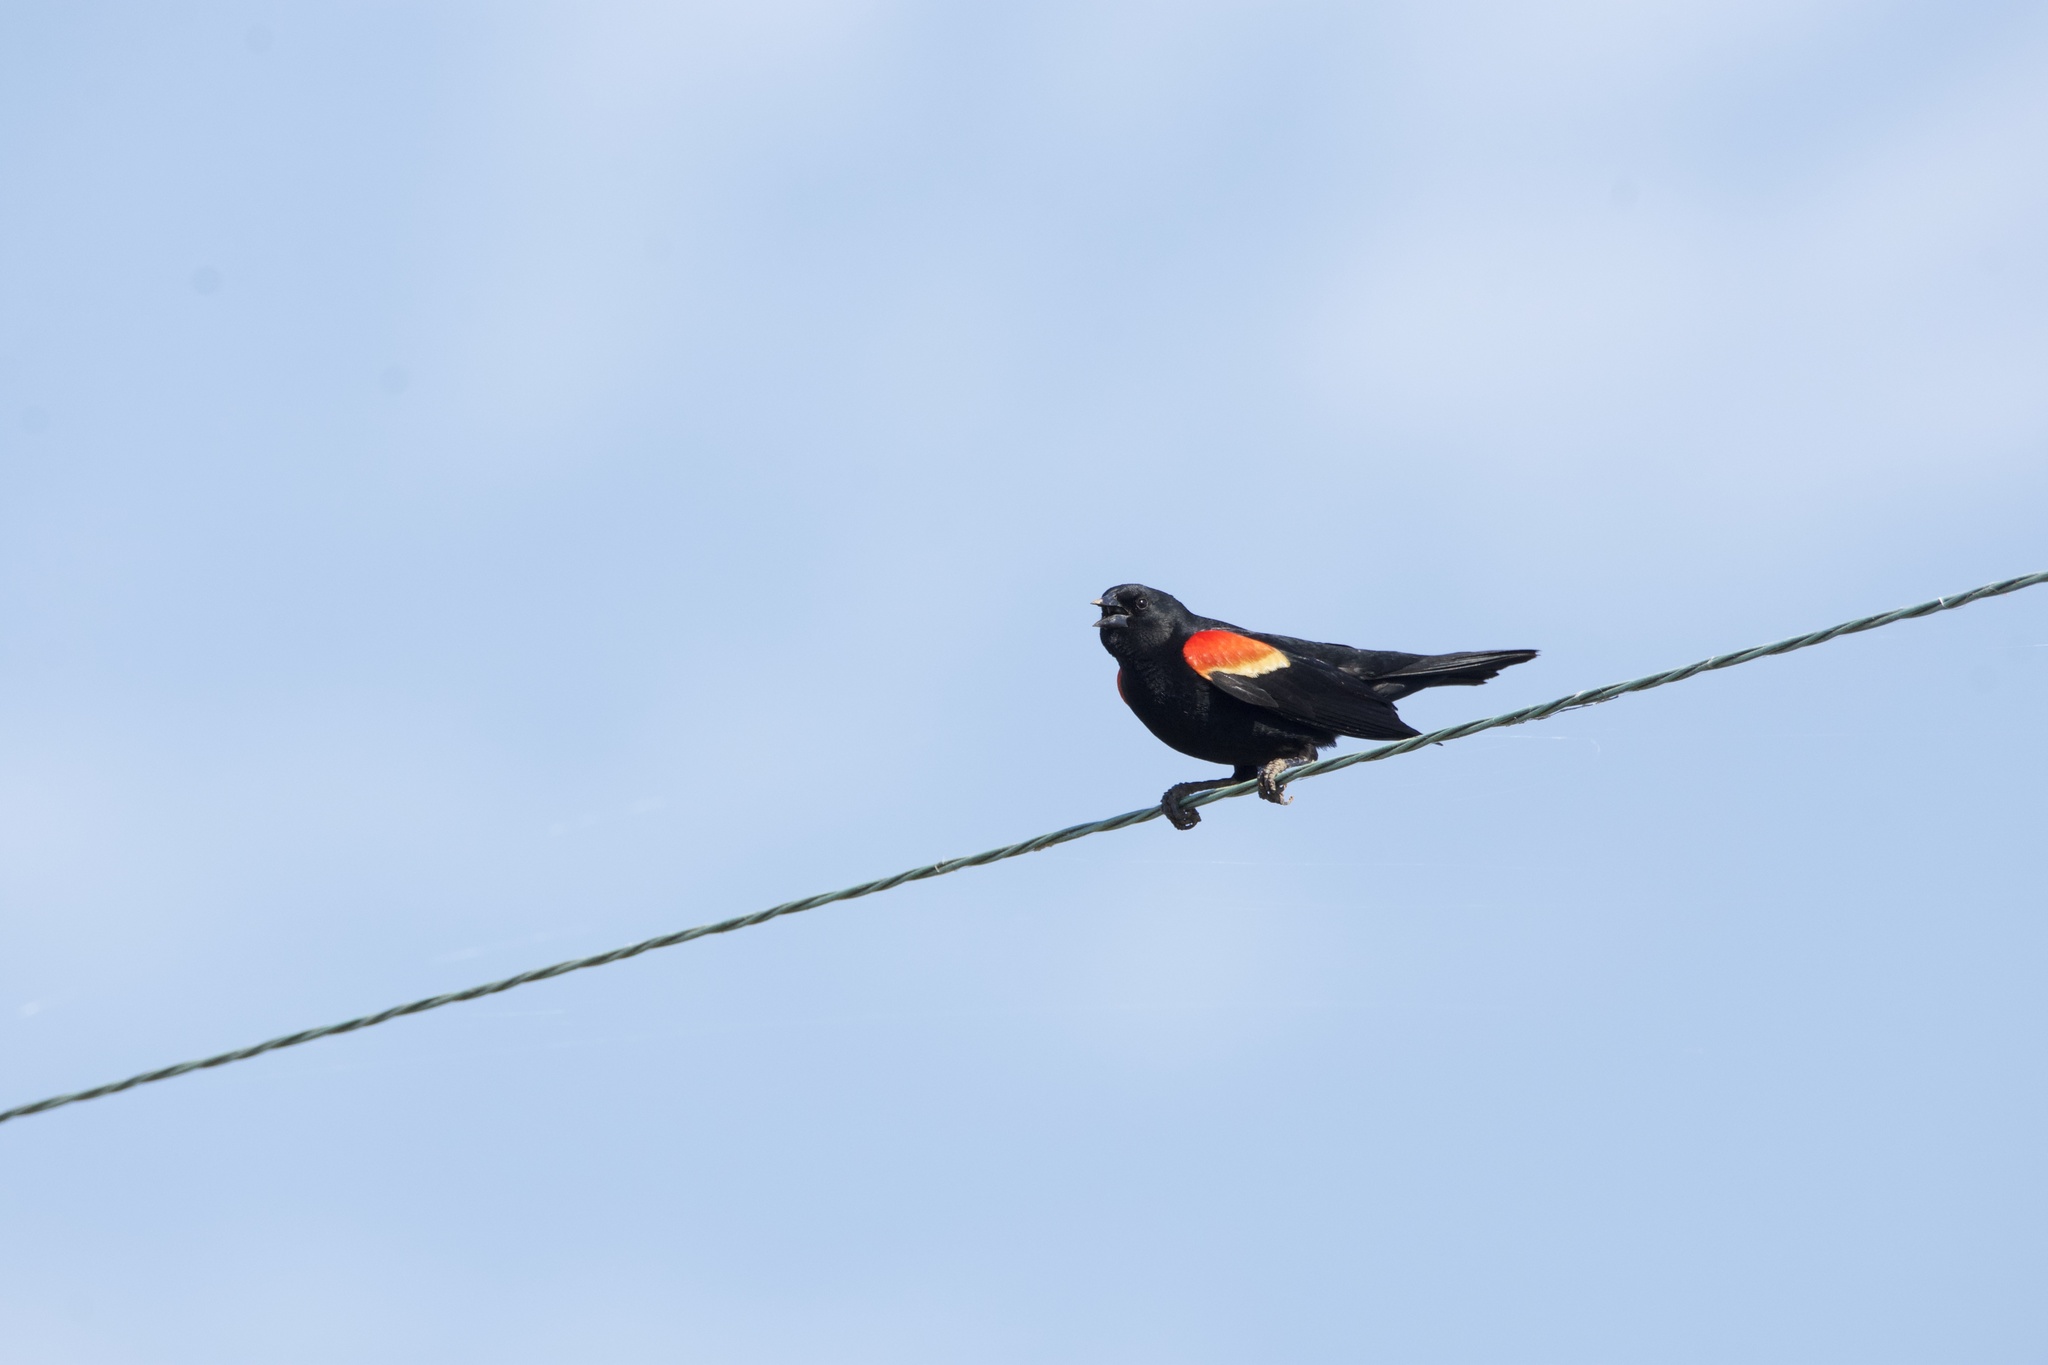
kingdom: Animalia
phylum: Chordata
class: Aves
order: Passeriformes
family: Icteridae
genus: Agelaius
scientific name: Agelaius phoeniceus
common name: Red-winged blackbird
